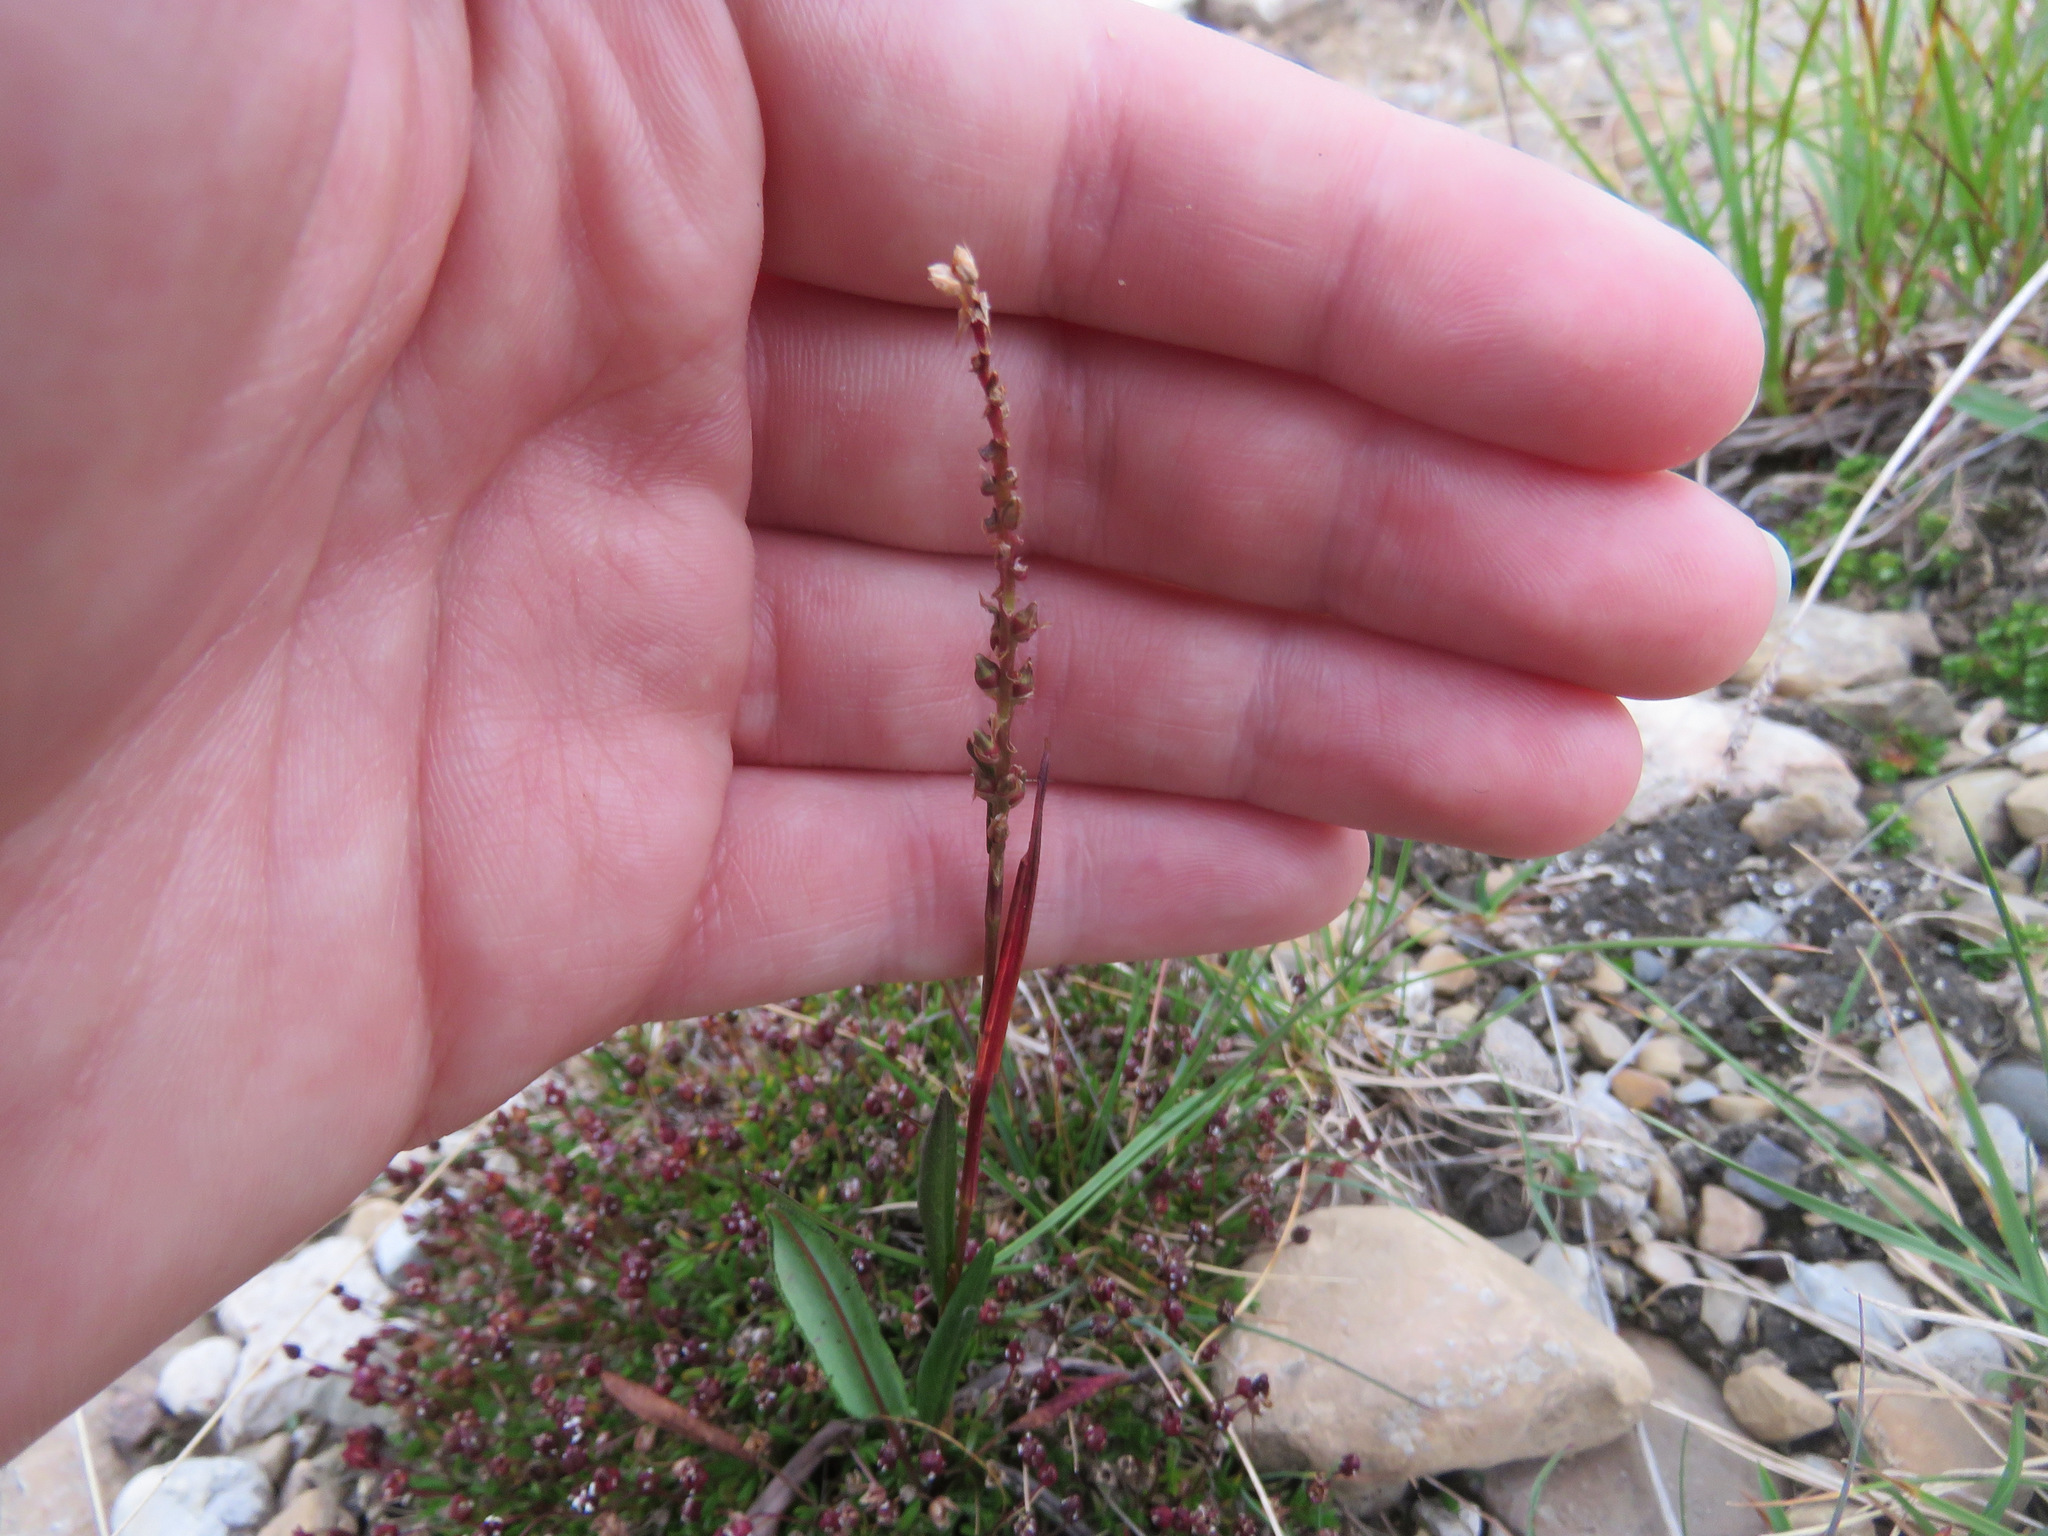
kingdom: Plantae
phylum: Tracheophyta
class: Magnoliopsida
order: Caryophyllales
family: Polygonaceae
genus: Bistorta
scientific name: Bistorta vivipara
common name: Alpine bistort
